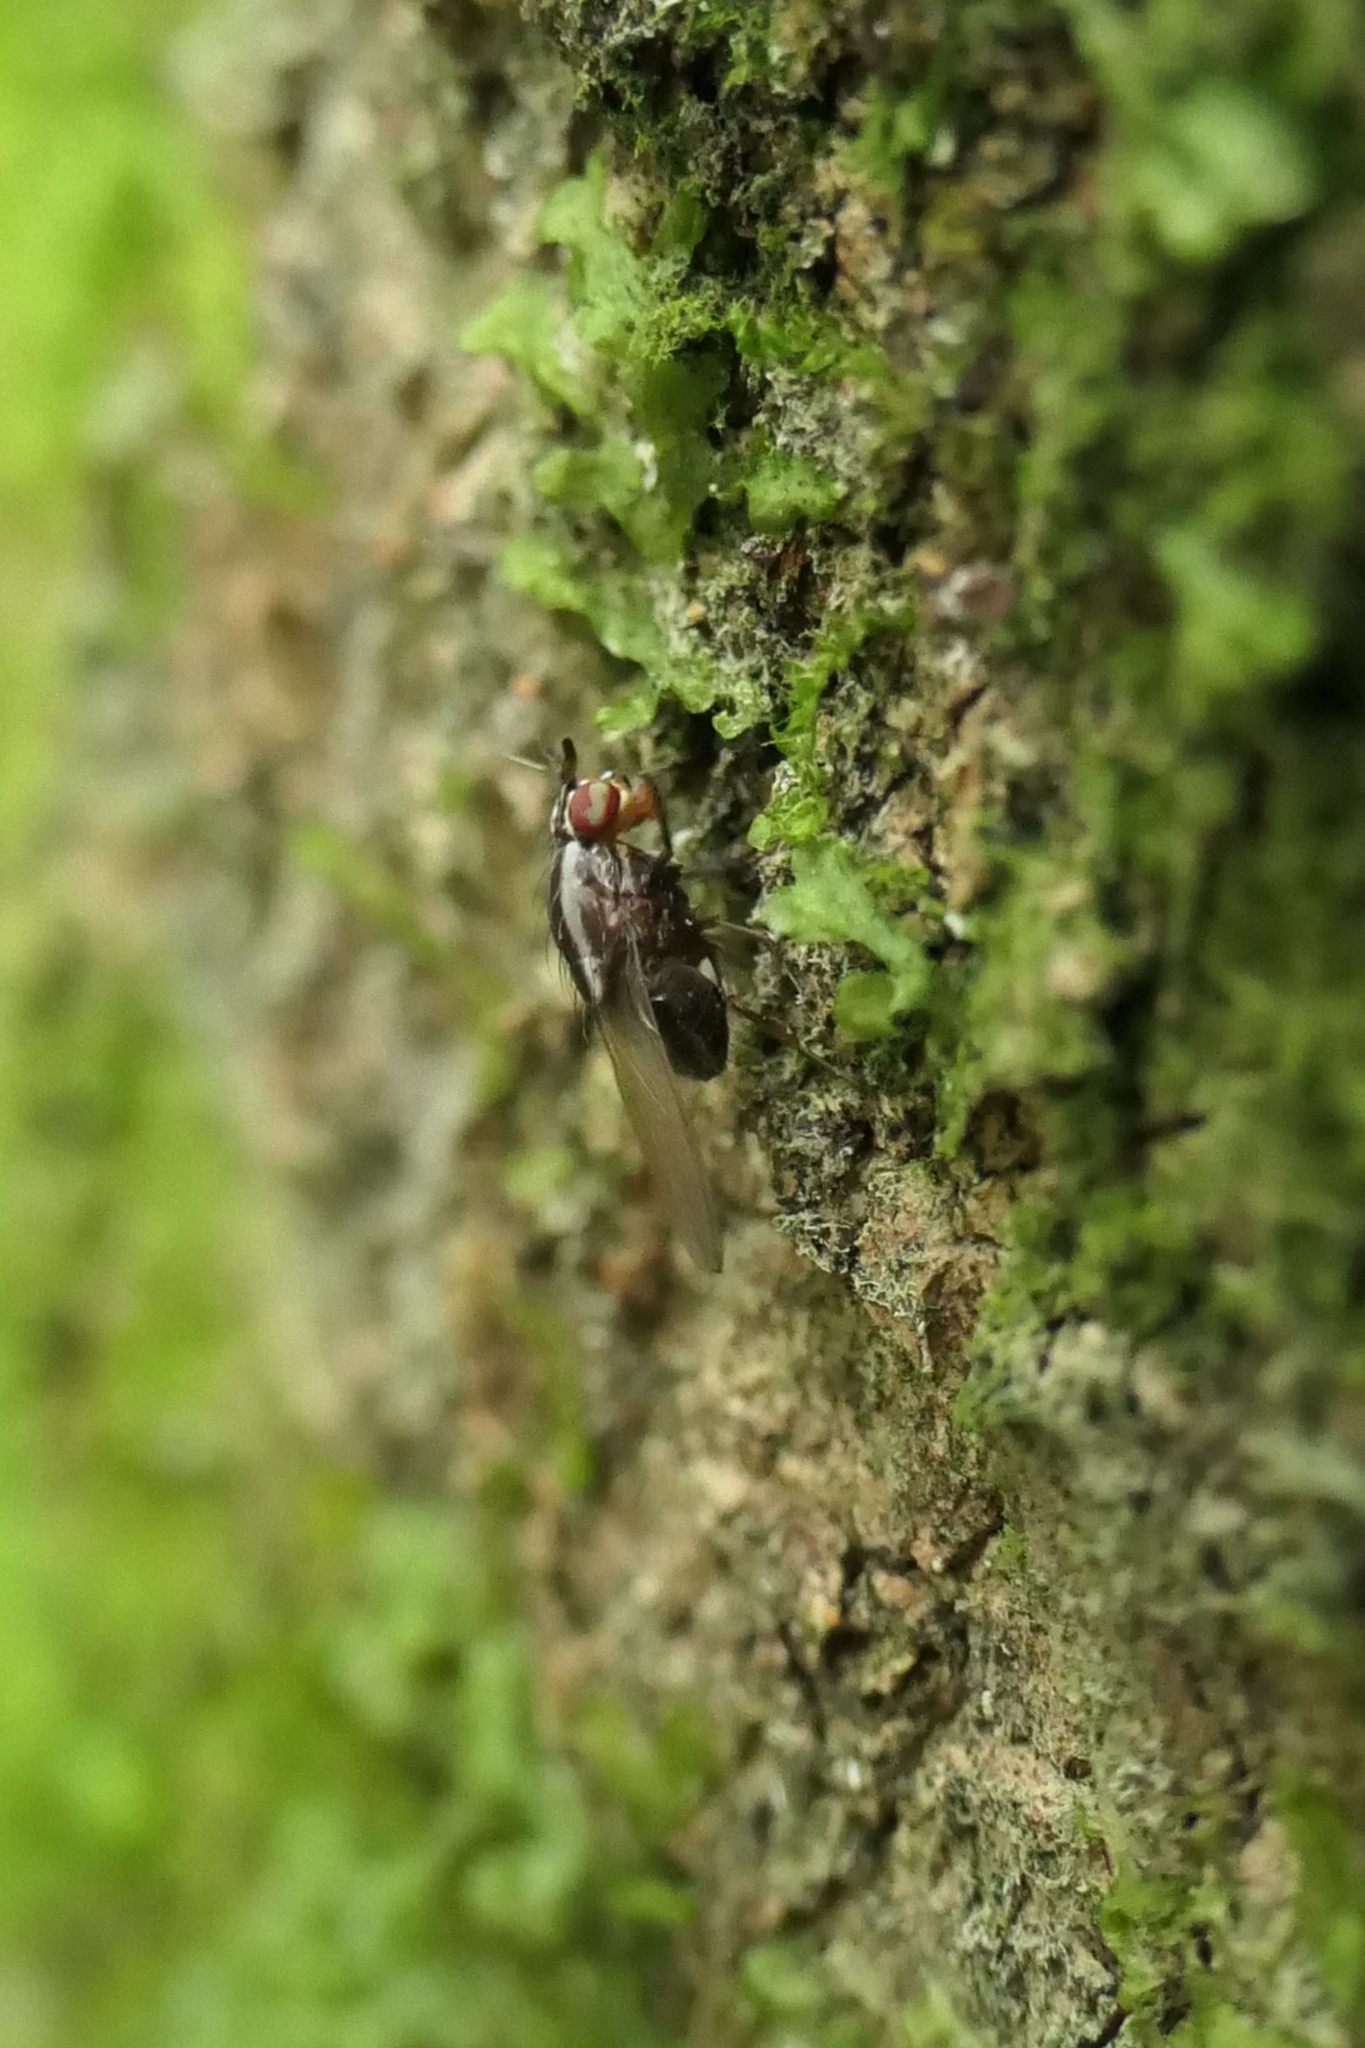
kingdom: Animalia
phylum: Arthropoda
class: Insecta
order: Diptera
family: Lauxaniidae
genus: Poecilohetaerella
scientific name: Poecilohetaerella dubiosa
